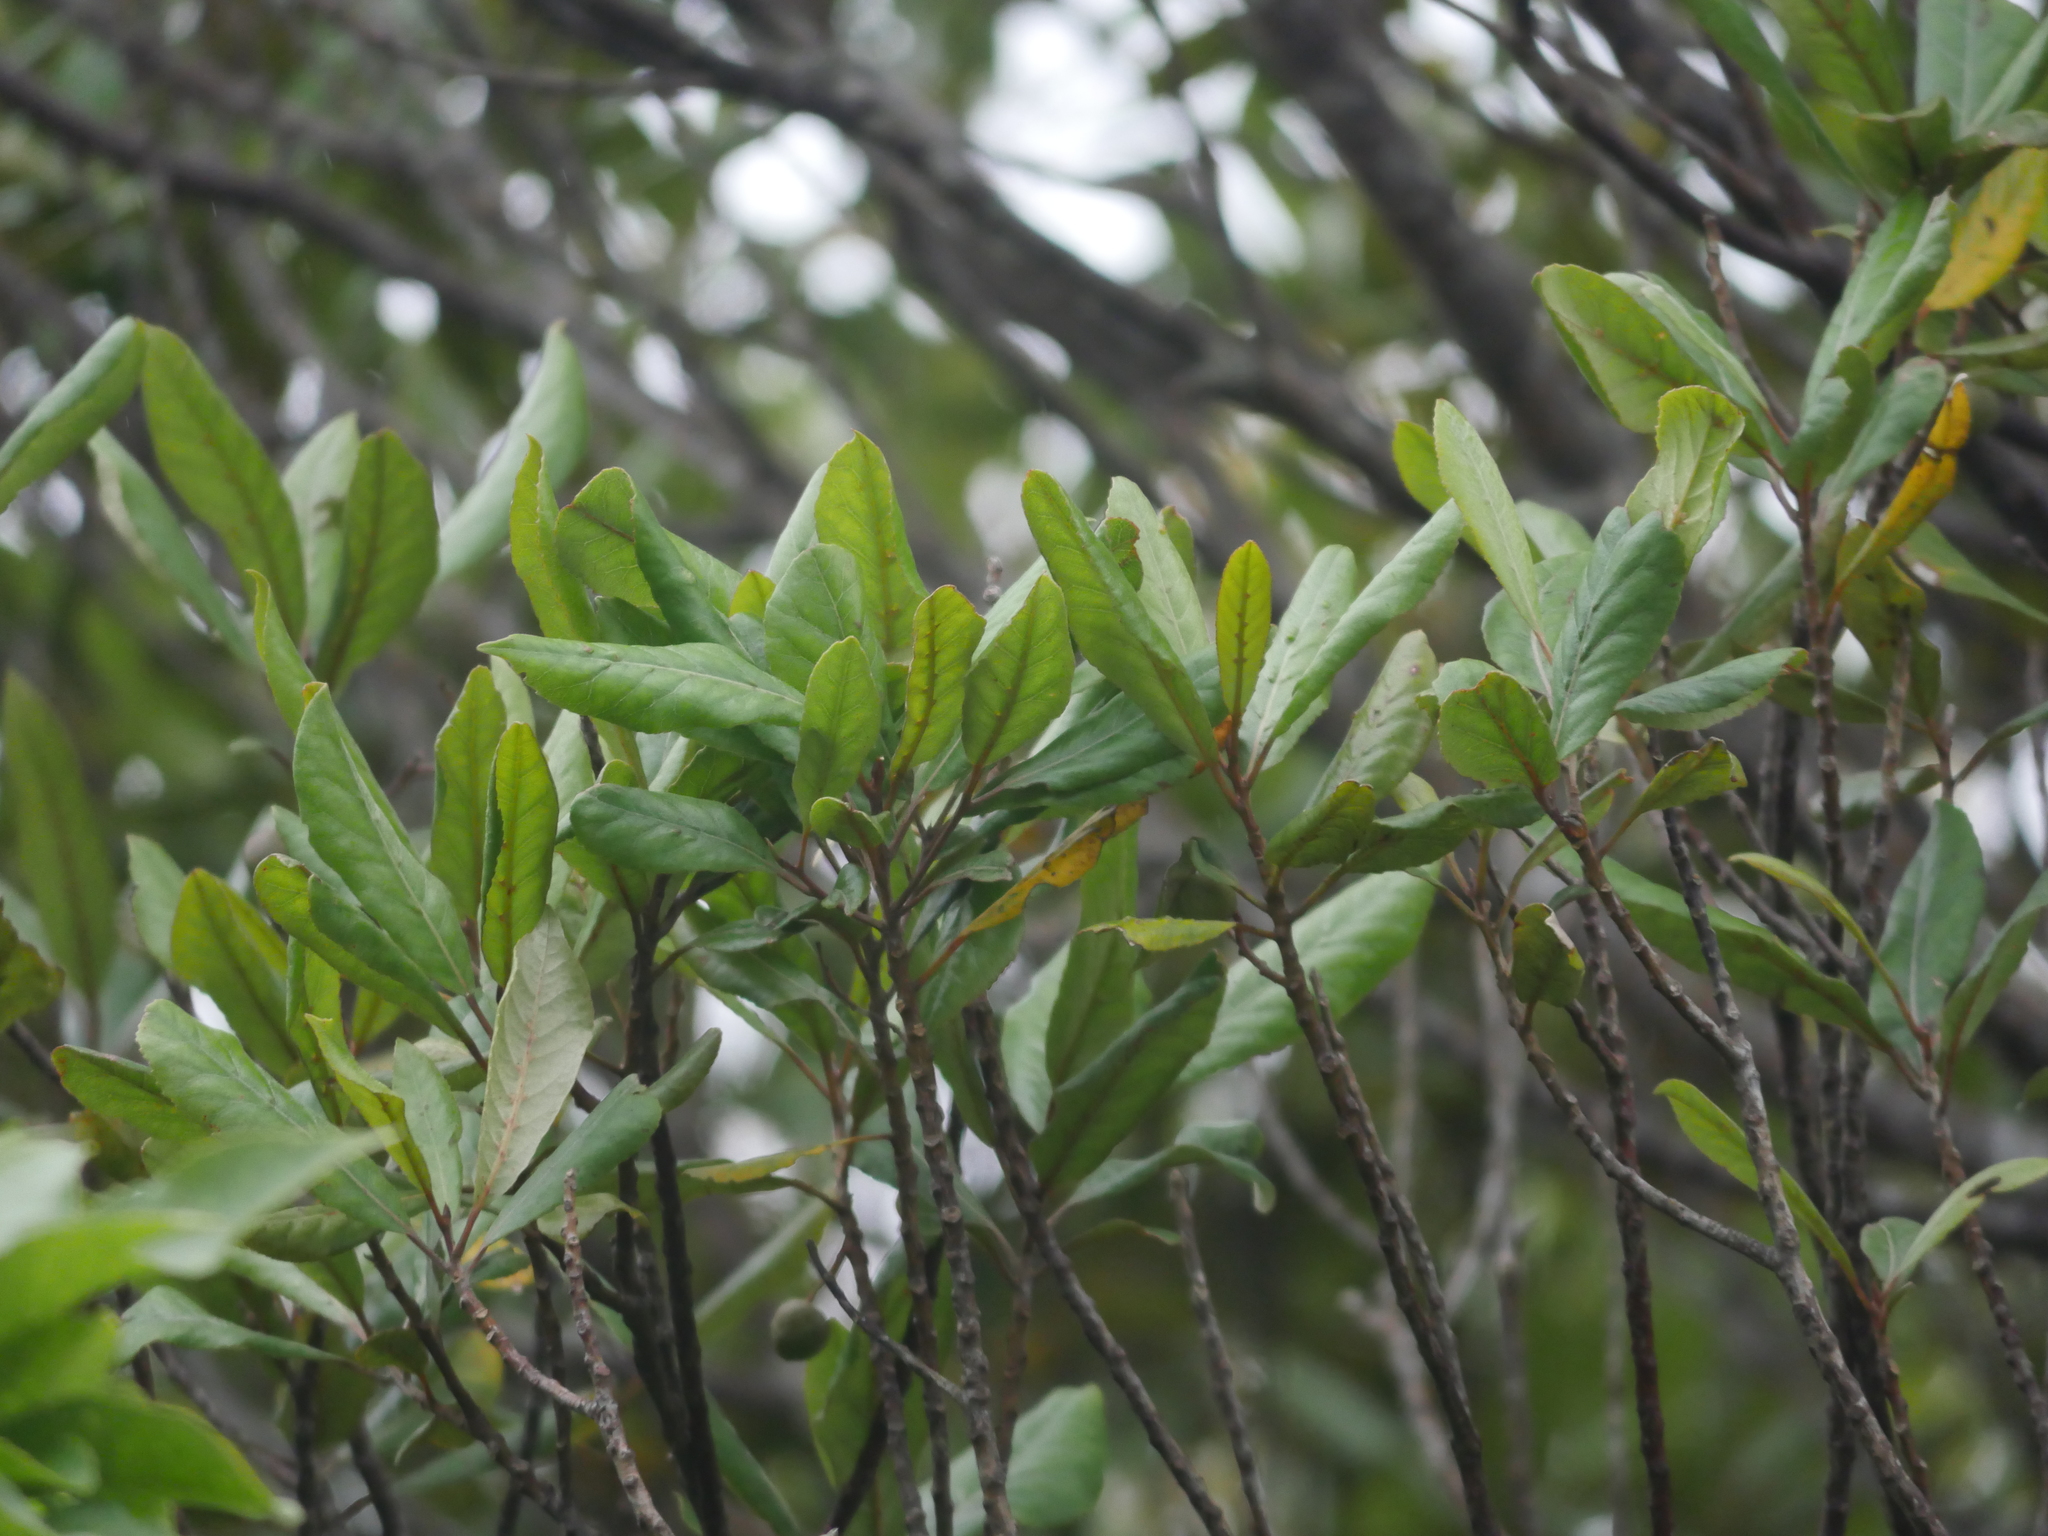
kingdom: Plantae
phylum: Tracheophyta
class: Magnoliopsida
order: Oxalidales
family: Elaeocarpaceae
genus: Elaeocarpus
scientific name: Elaeocarpus dentatus
